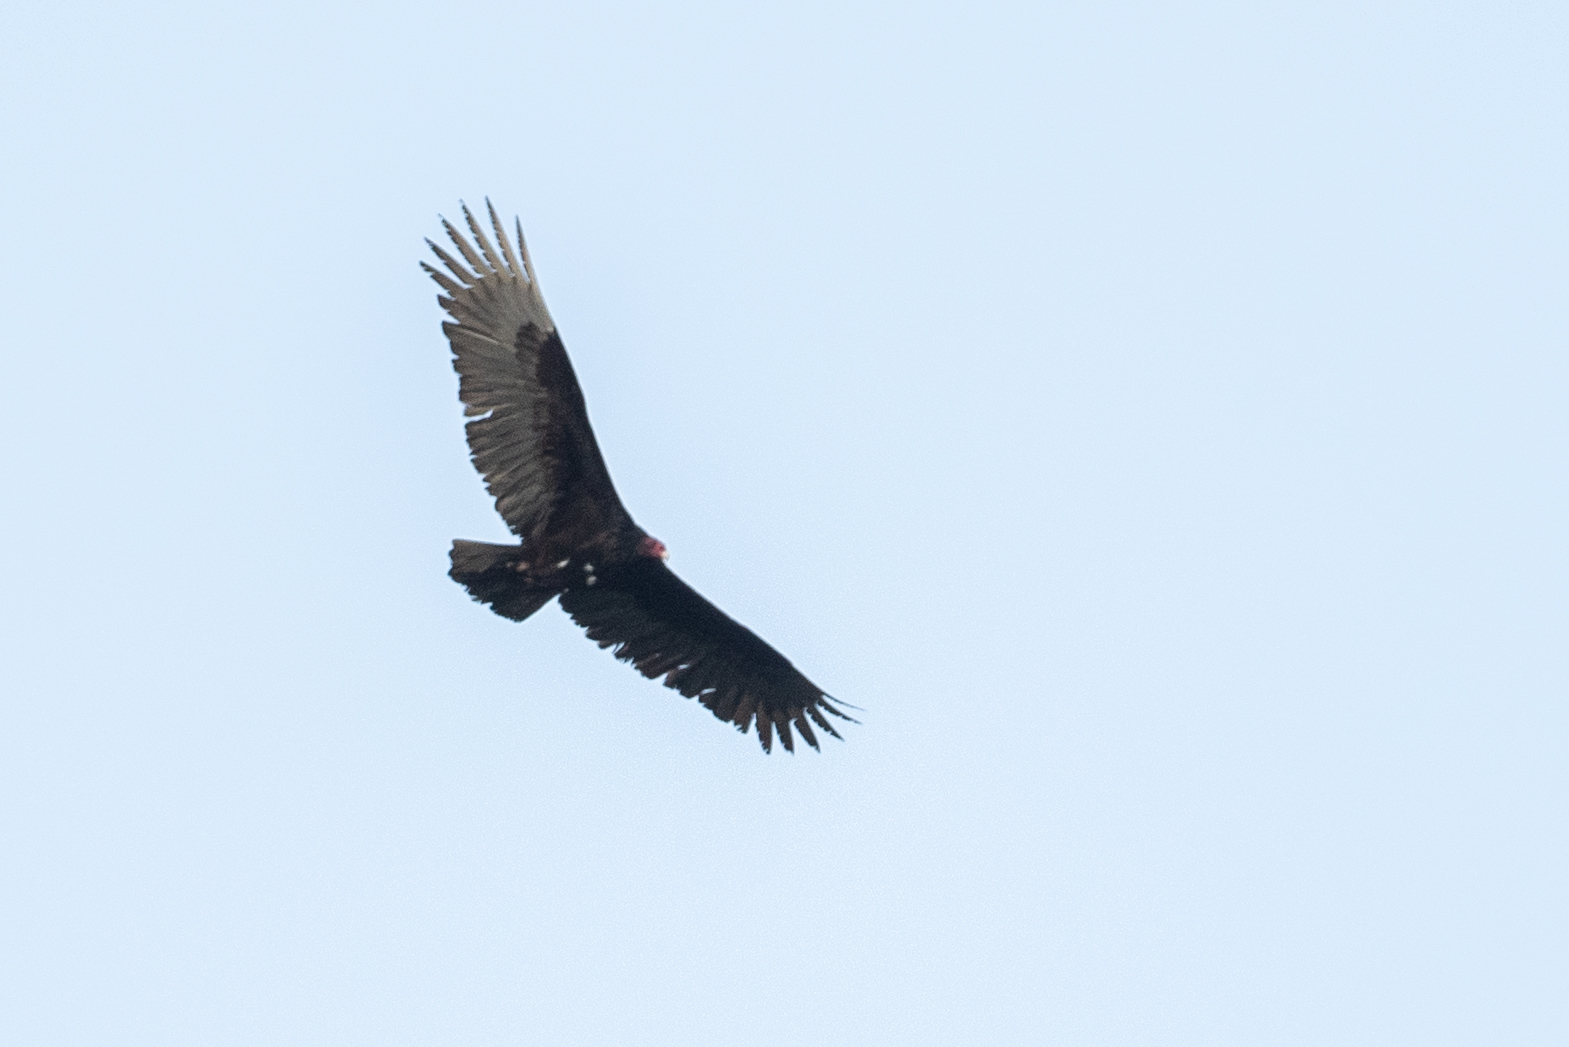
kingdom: Animalia
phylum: Chordata
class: Aves
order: Accipitriformes
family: Cathartidae
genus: Cathartes
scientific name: Cathartes aura
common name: Turkey vulture
